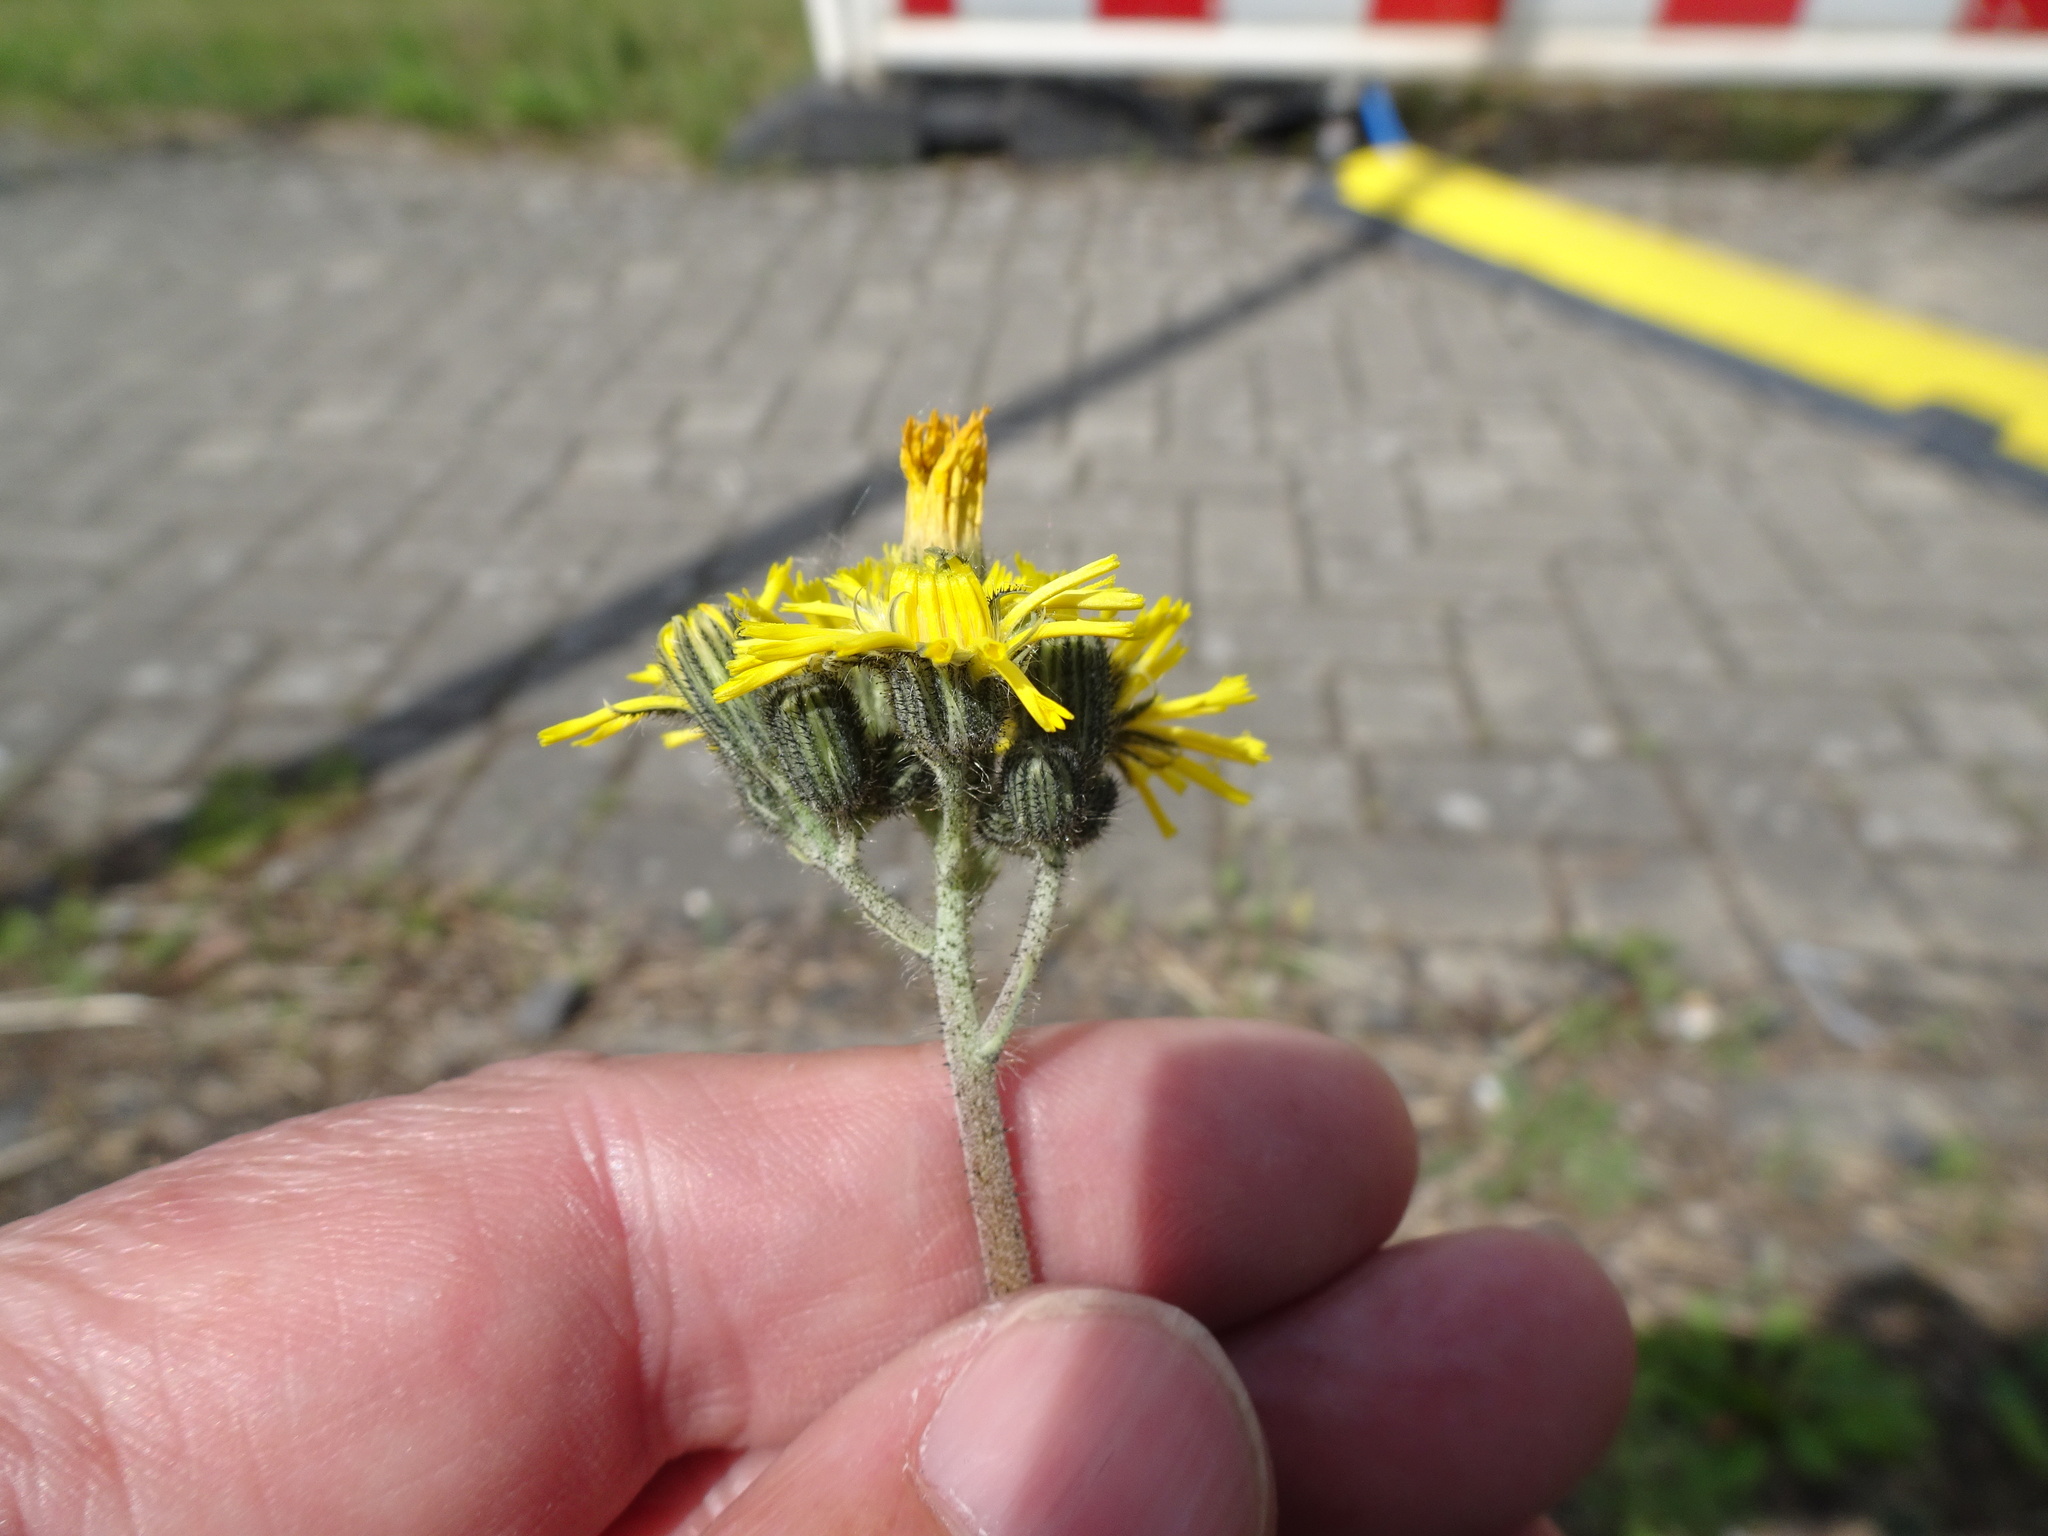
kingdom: Plantae
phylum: Tracheophyta
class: Magnoliopsida
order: Asterales
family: Asteraceae
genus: Pilosella
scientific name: Pilosella caespitosa
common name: Yellow fox-and-cubs
